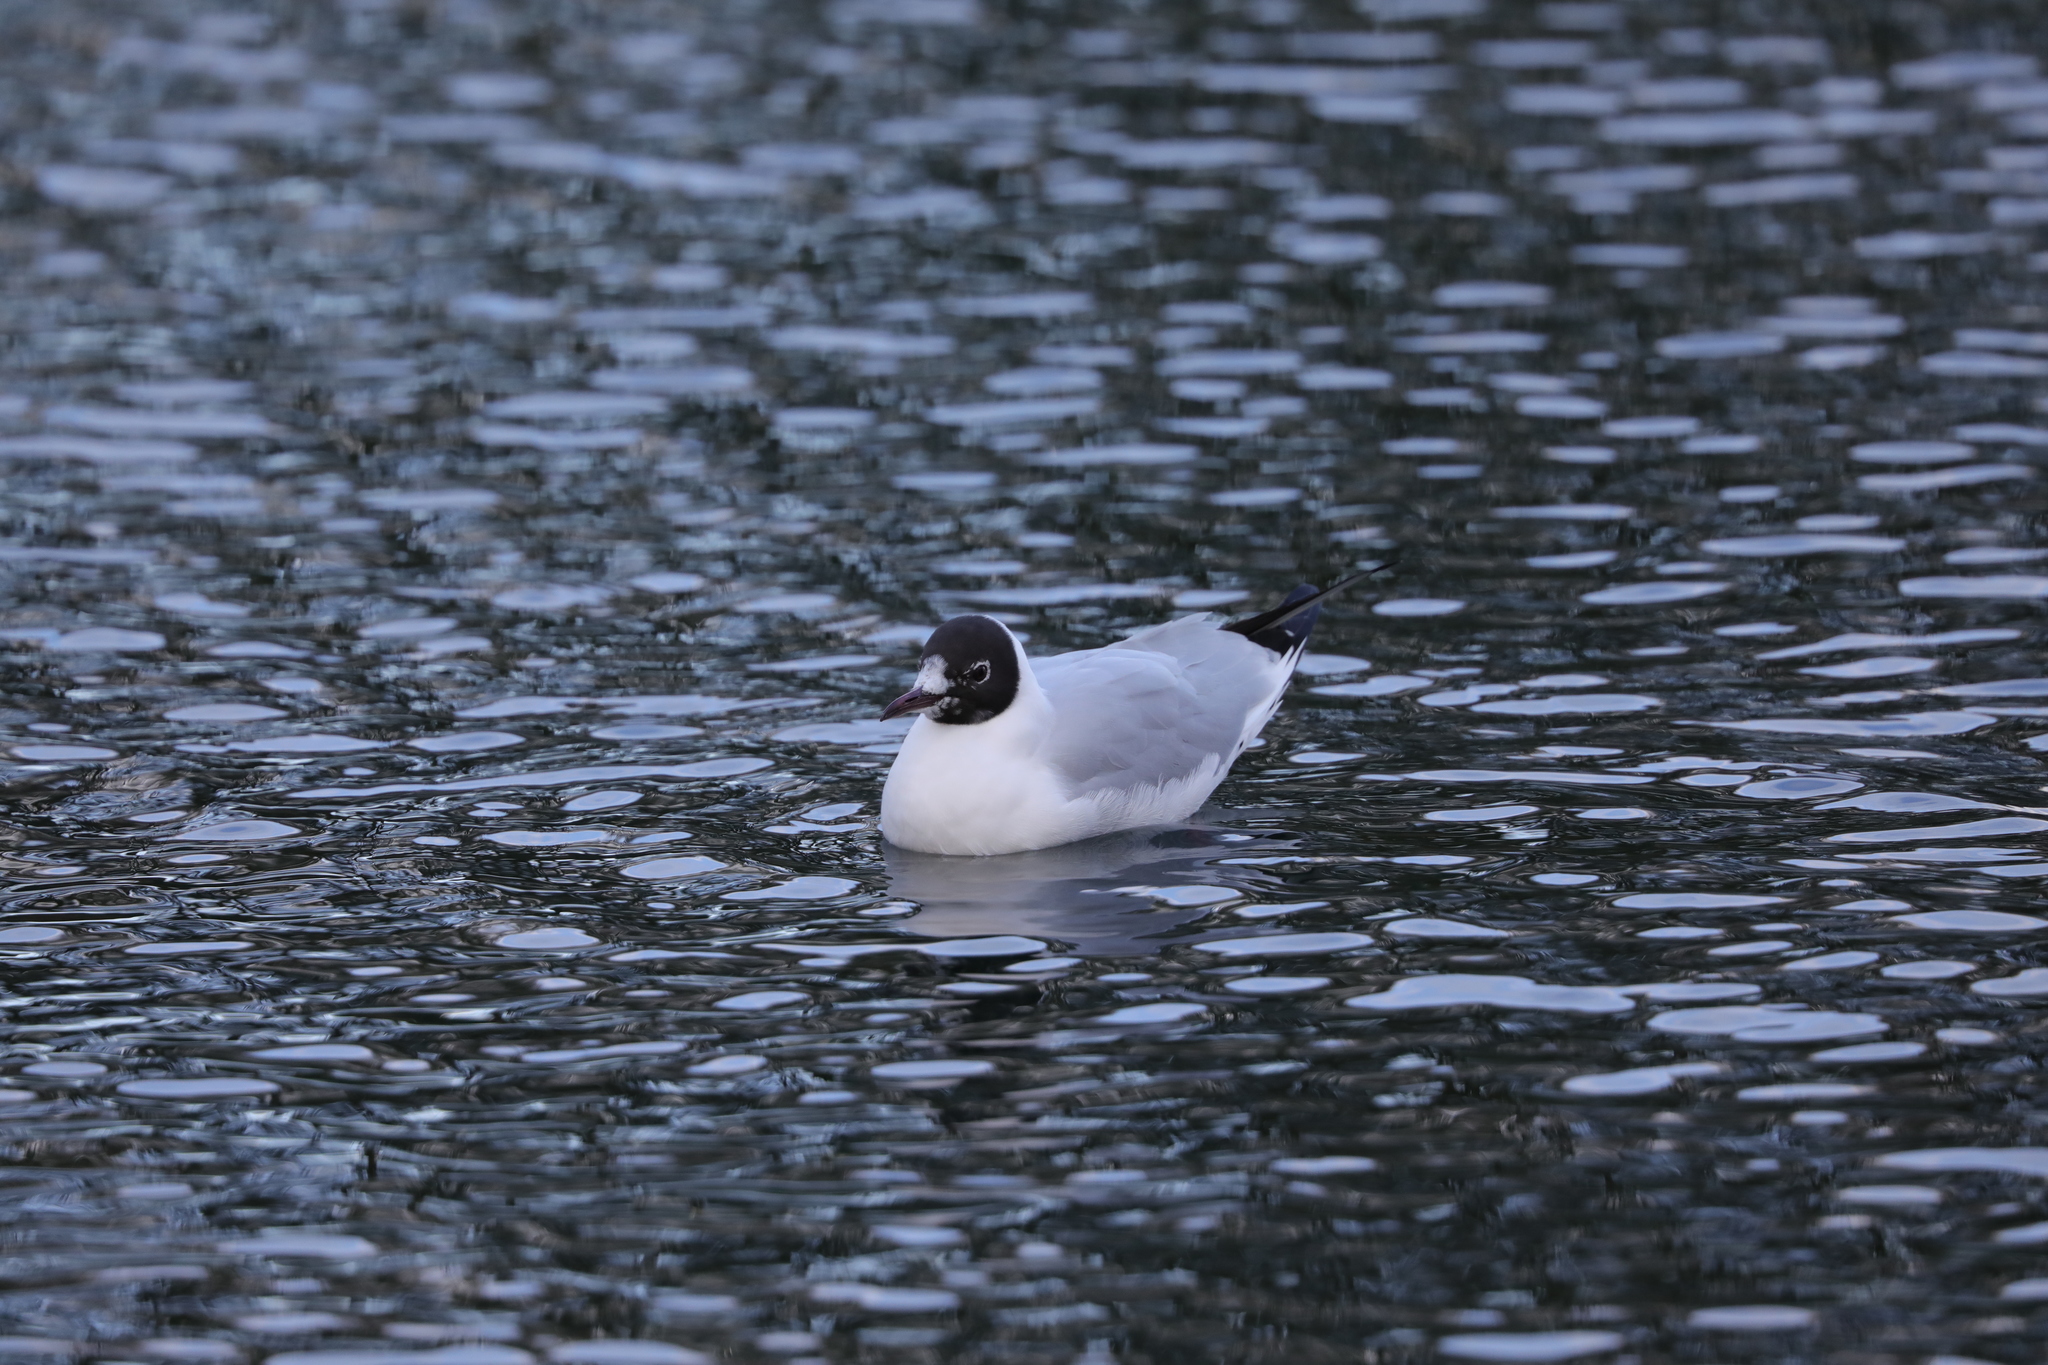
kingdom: Animalia
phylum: Chordata
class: Aves
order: Charadriiformes
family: Laridae
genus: Chroicocephalus
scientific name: Chroicocephalus ridibundus
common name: Black-headed gull
